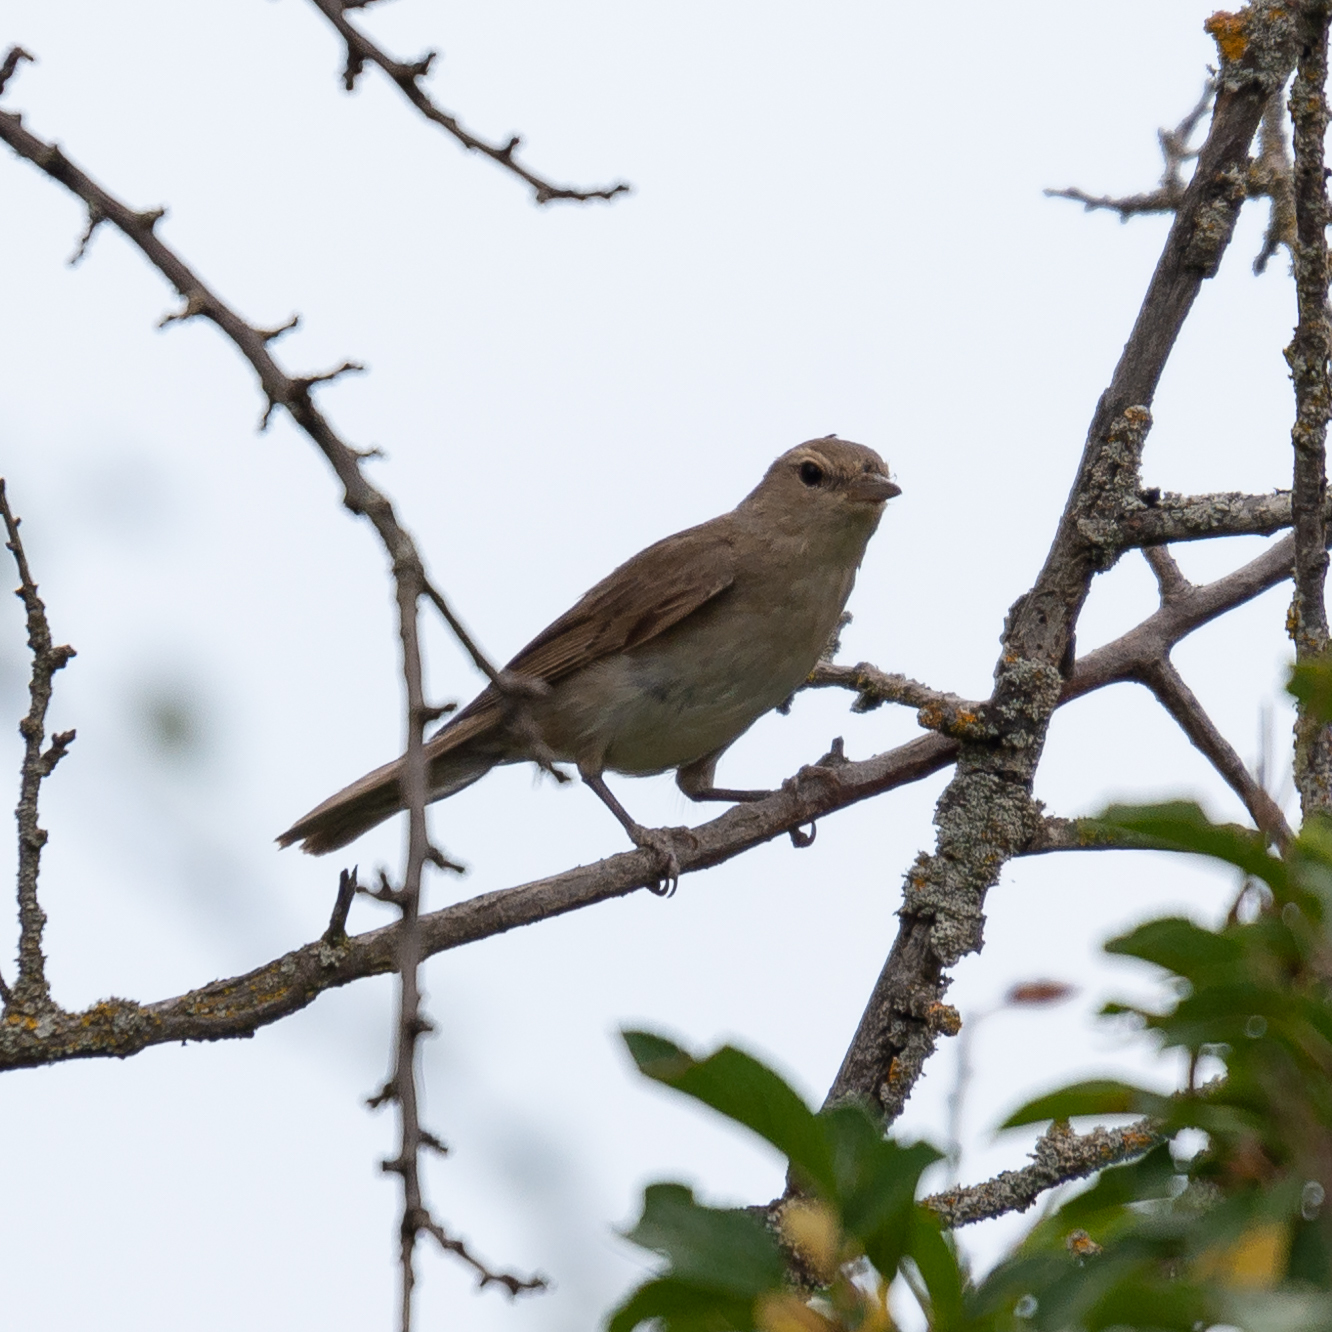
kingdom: Animalia
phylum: Chordata
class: Aves
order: Passeriformes
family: Sylviidae
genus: Sylvia
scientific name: Sylvia borin
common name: Garden warbler
